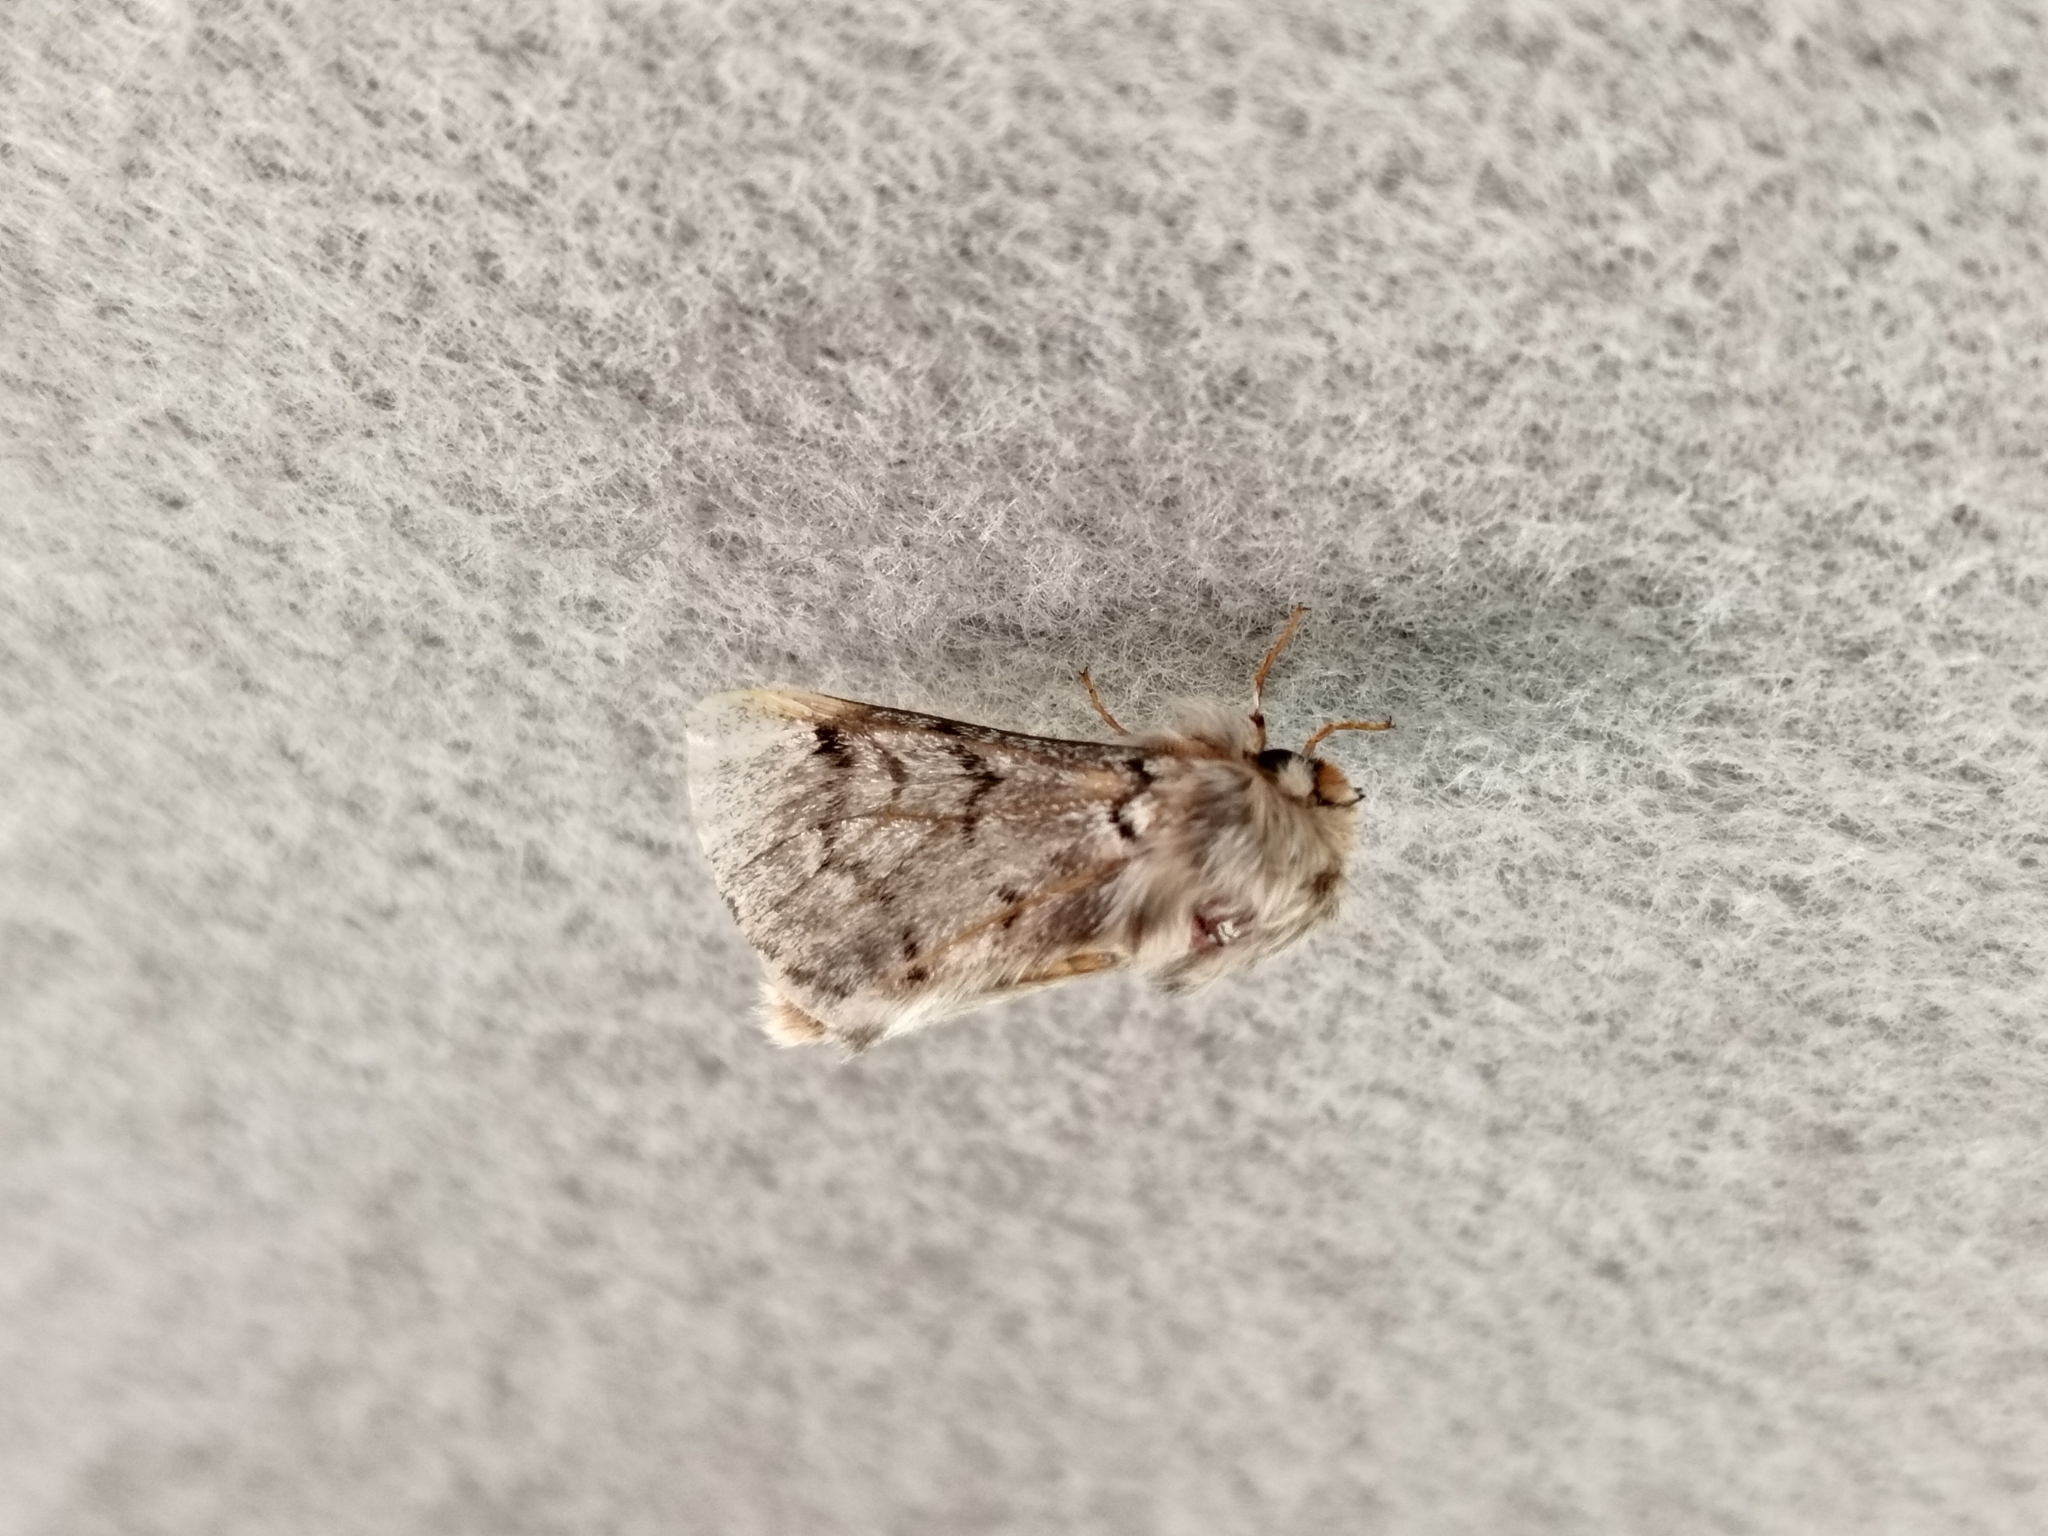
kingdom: Animalia
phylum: Arthropoda
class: Insecta
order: Lepidoptera
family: Notodontidae
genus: Thaumetopoea
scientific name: Thaumetopoea pityocampa
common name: Pine processionary
